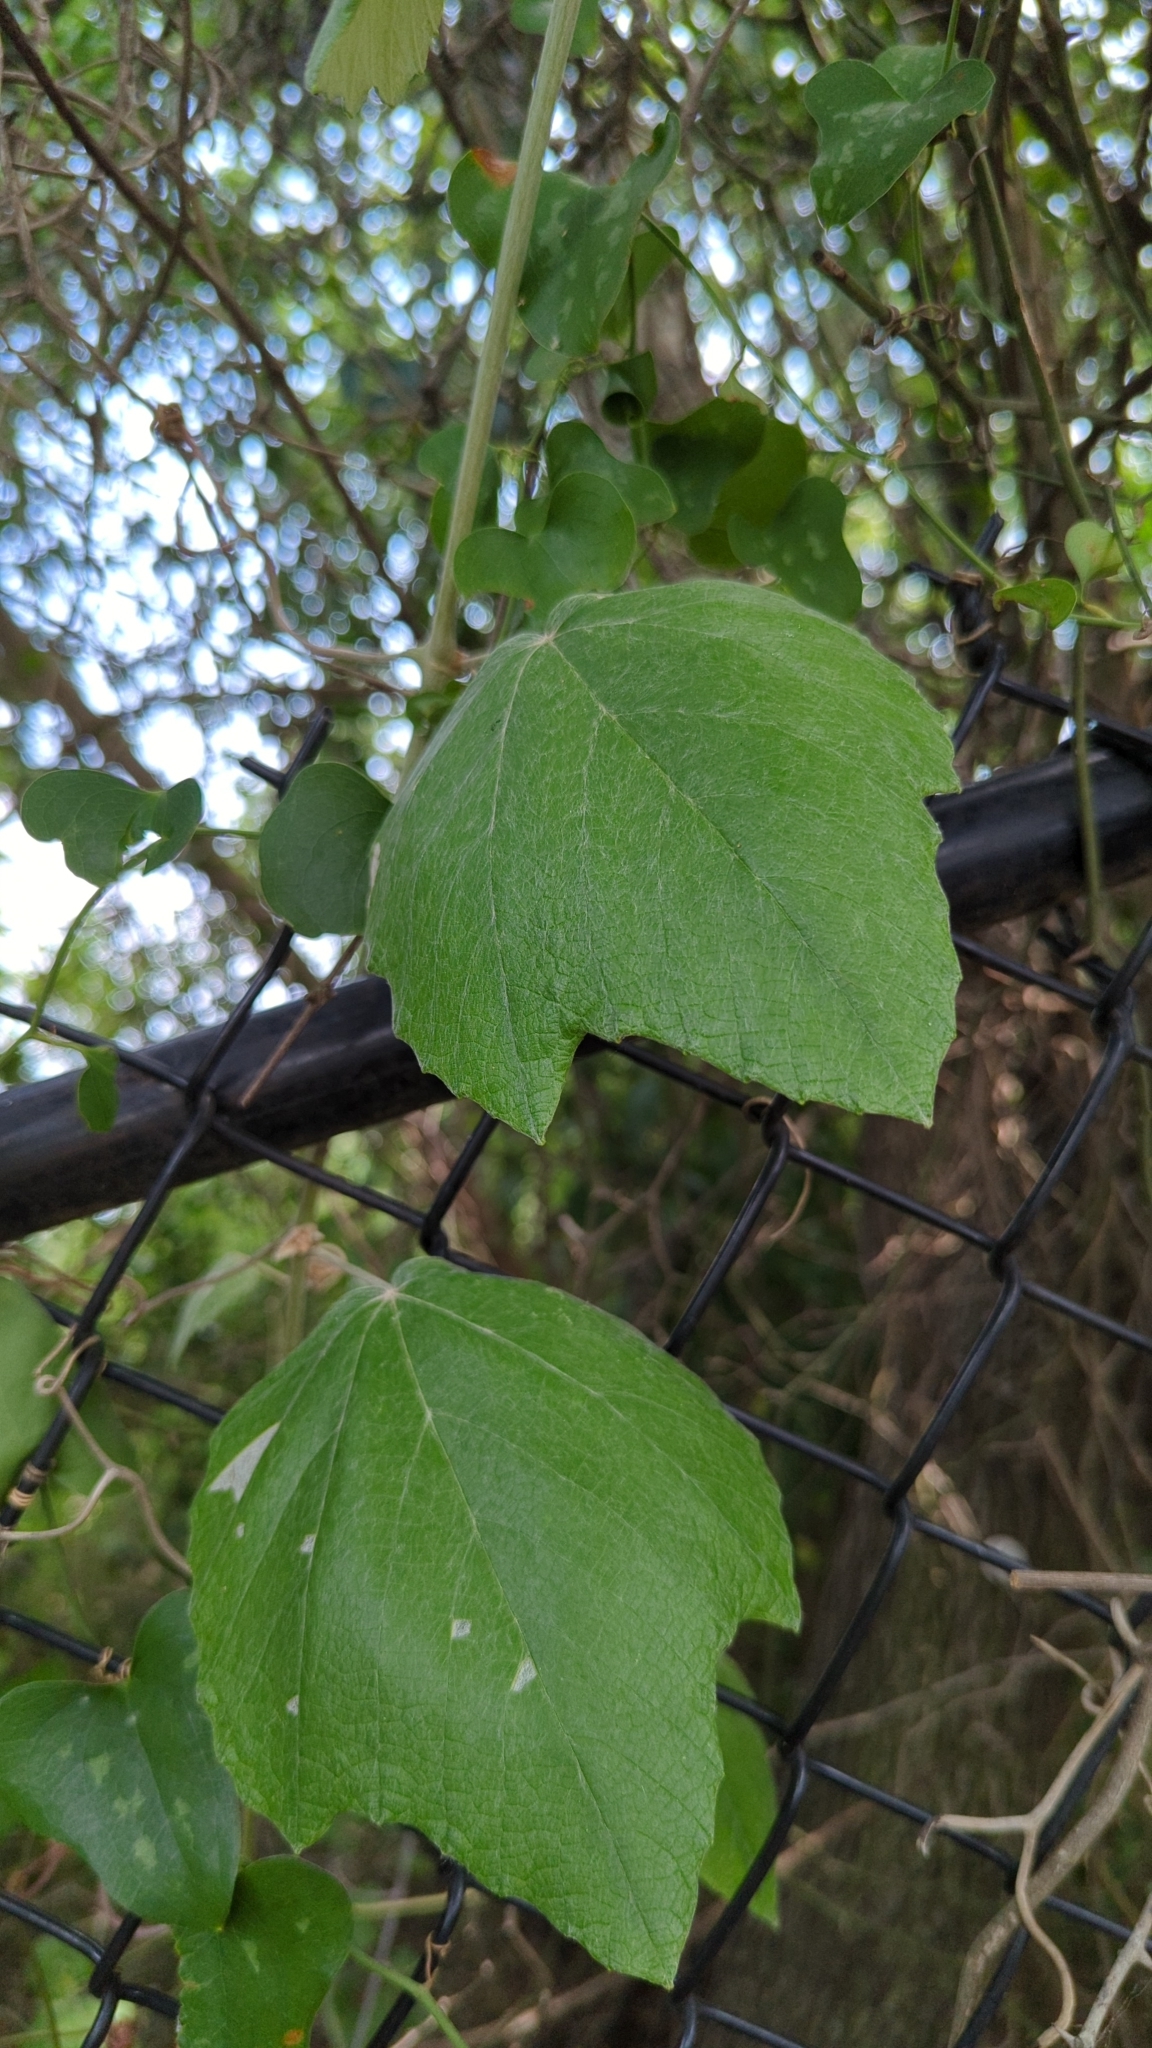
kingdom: Plantae
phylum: Tracheophyta
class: Magnoliopsida
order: Vitales
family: Vitaceae
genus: Vitis
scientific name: Vitis mustangensis
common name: Mustang grape
